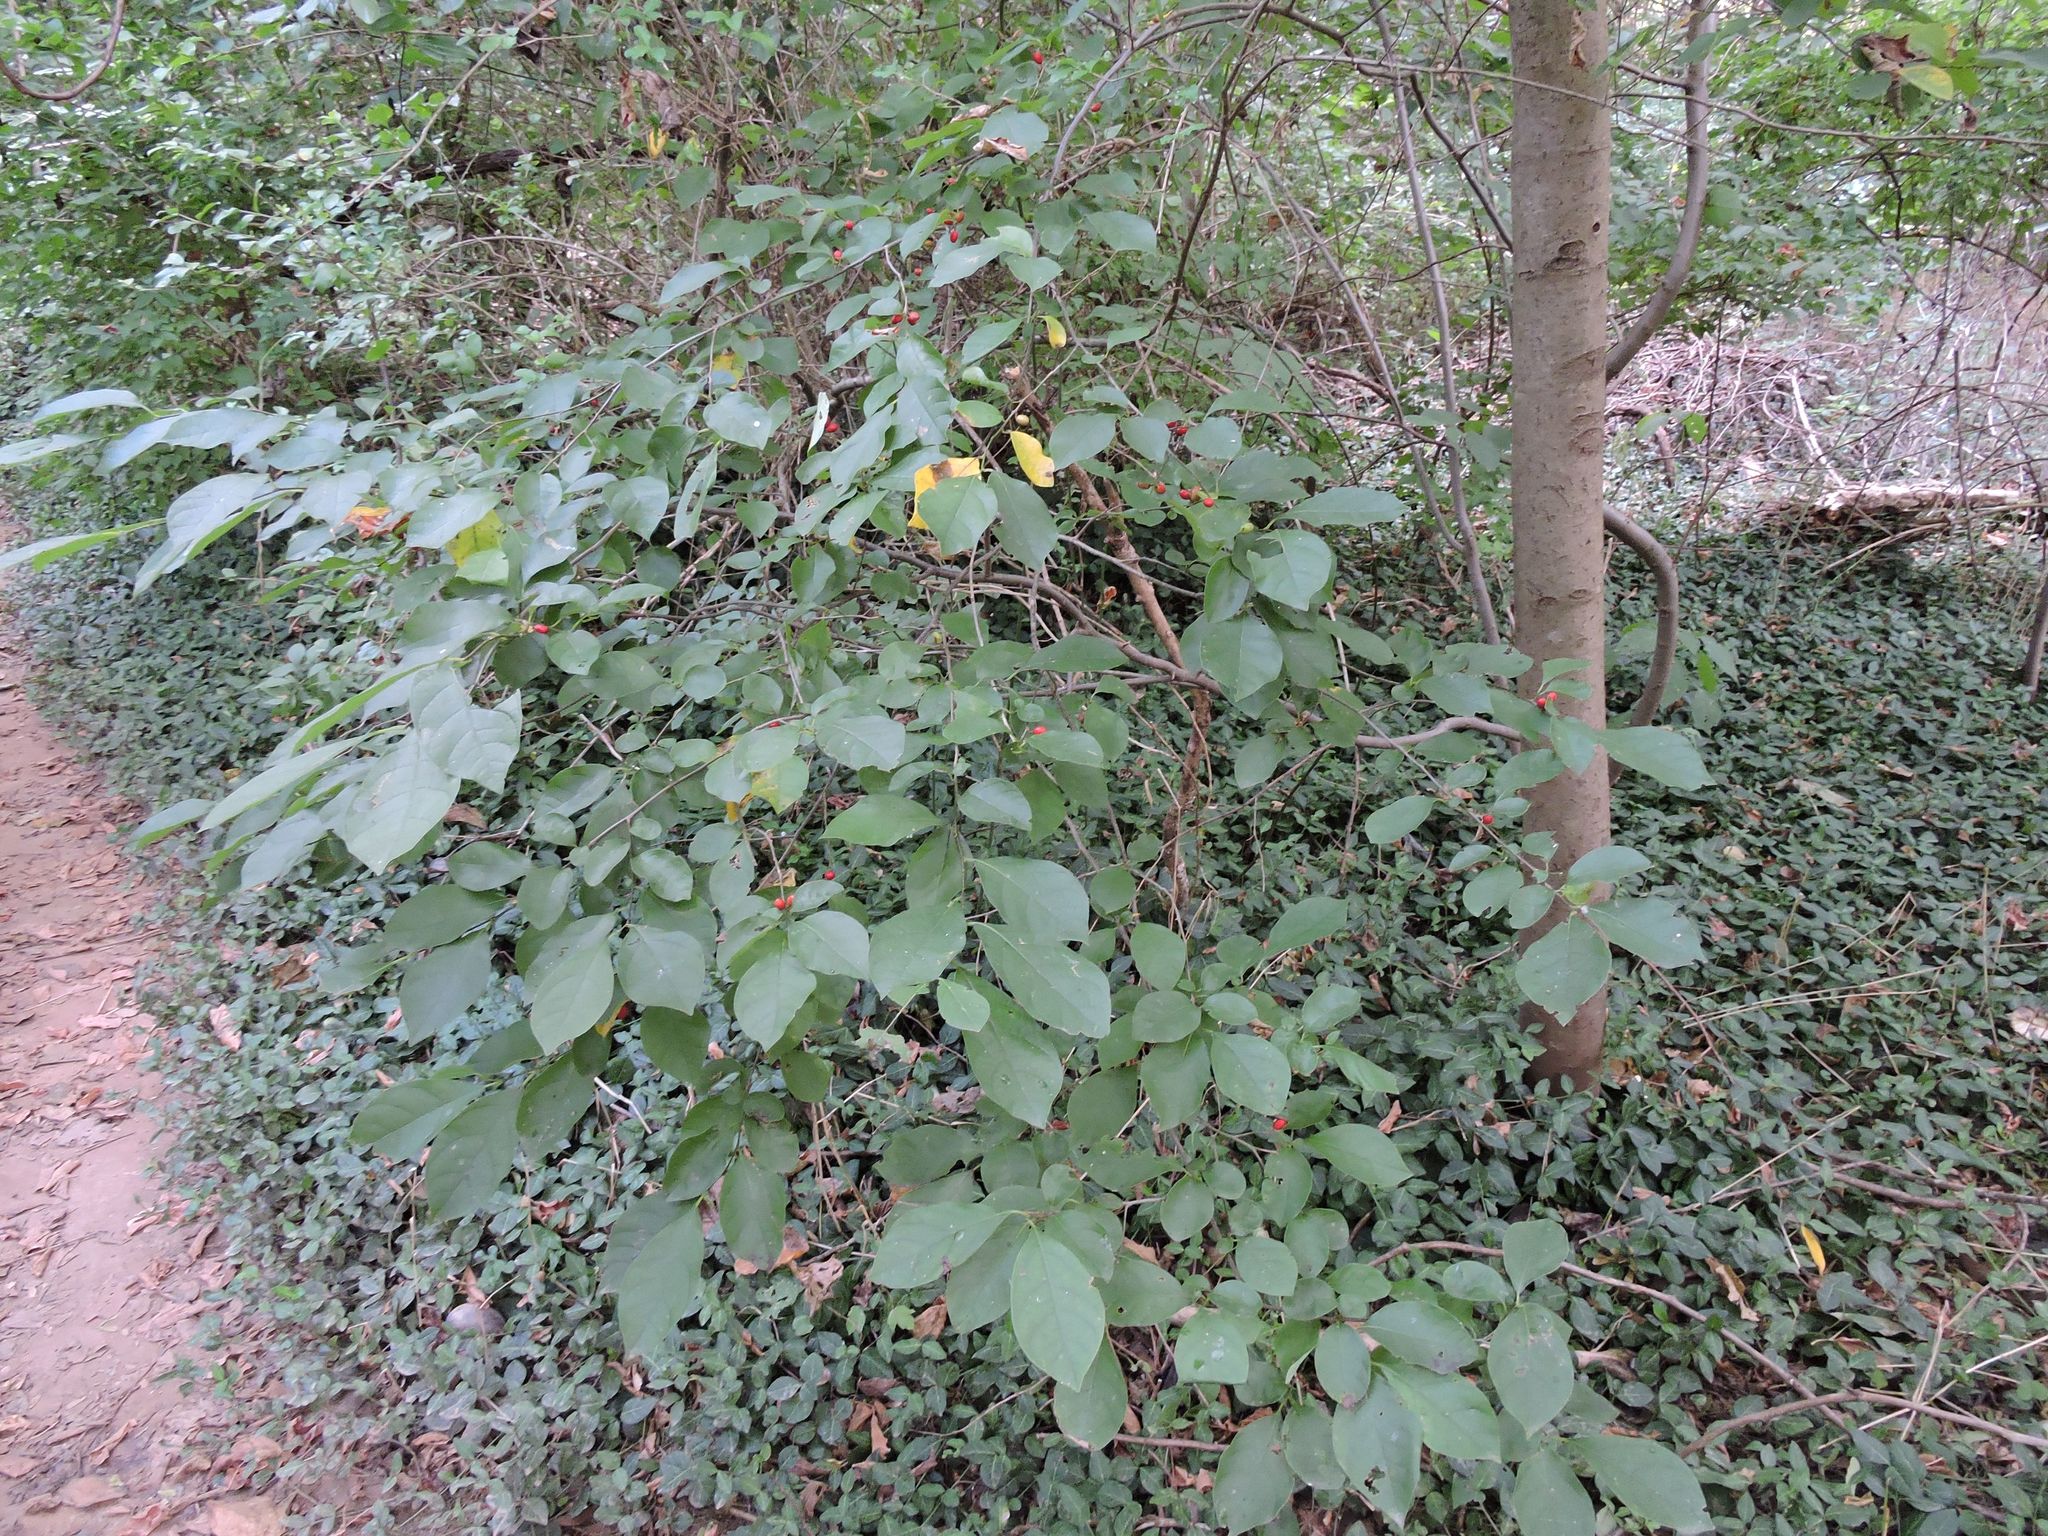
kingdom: Plantae
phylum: Tracheophyta
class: Magnoliopsida
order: Laurales
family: Lauraceae
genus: Lindera
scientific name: Lindera benzoin
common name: Spicebush
